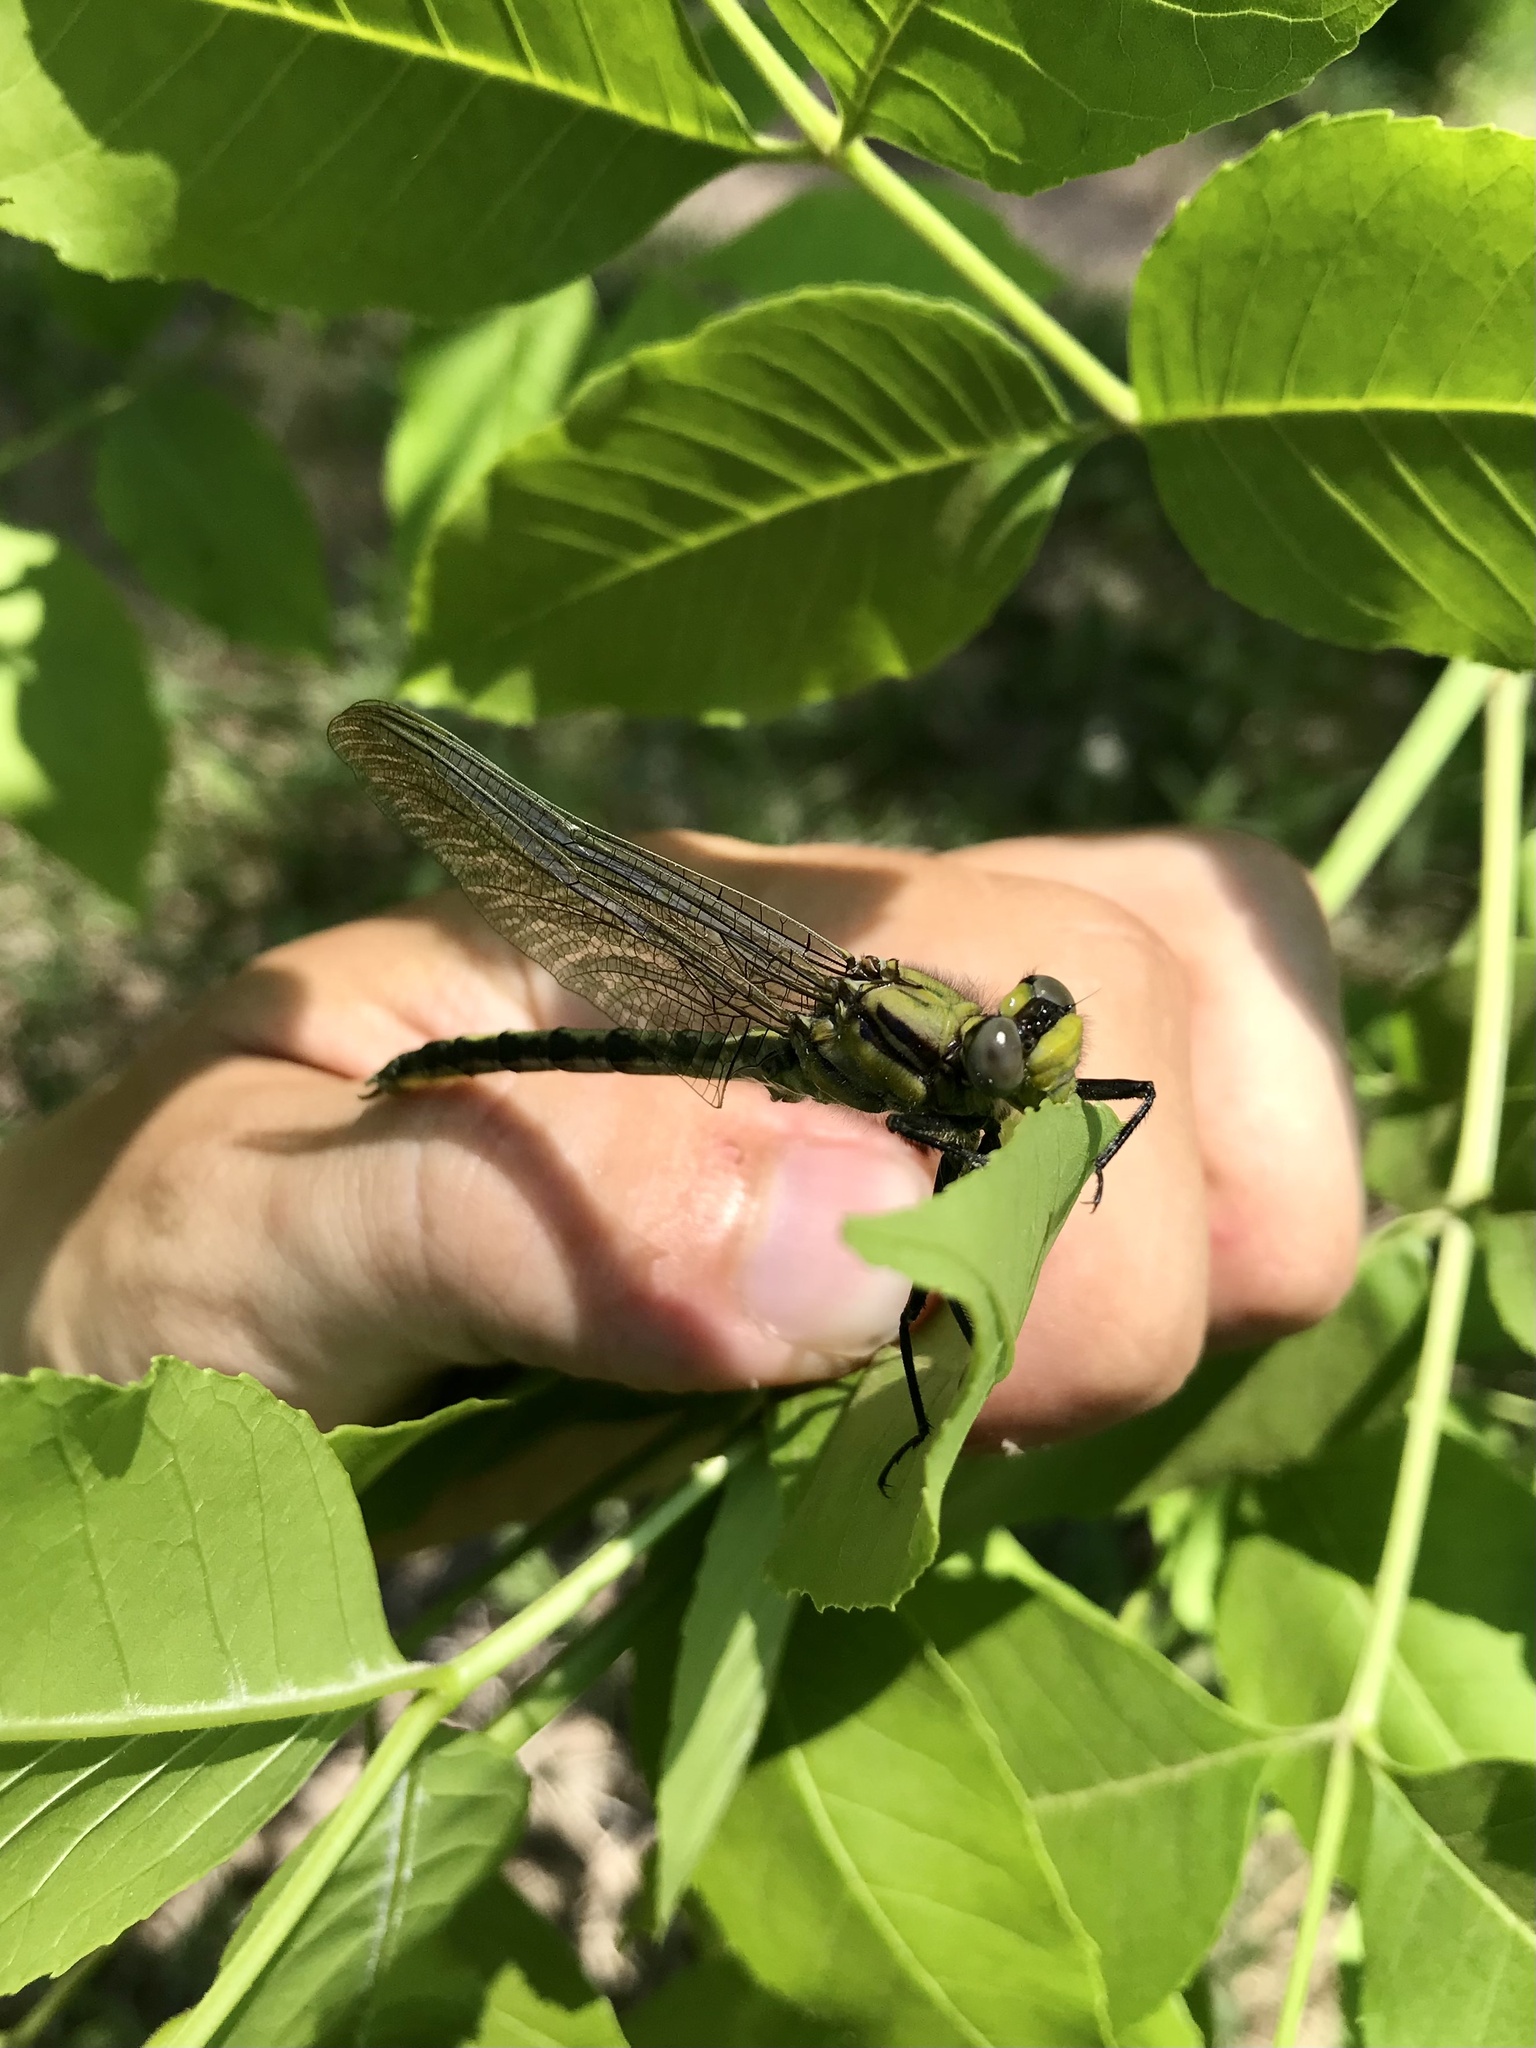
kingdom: Animalia
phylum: Arthropoda
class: Insecta
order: Odonata
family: Gomphidae
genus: Arigomphus
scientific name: Arigomphus cornutus
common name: Horned clubtail
